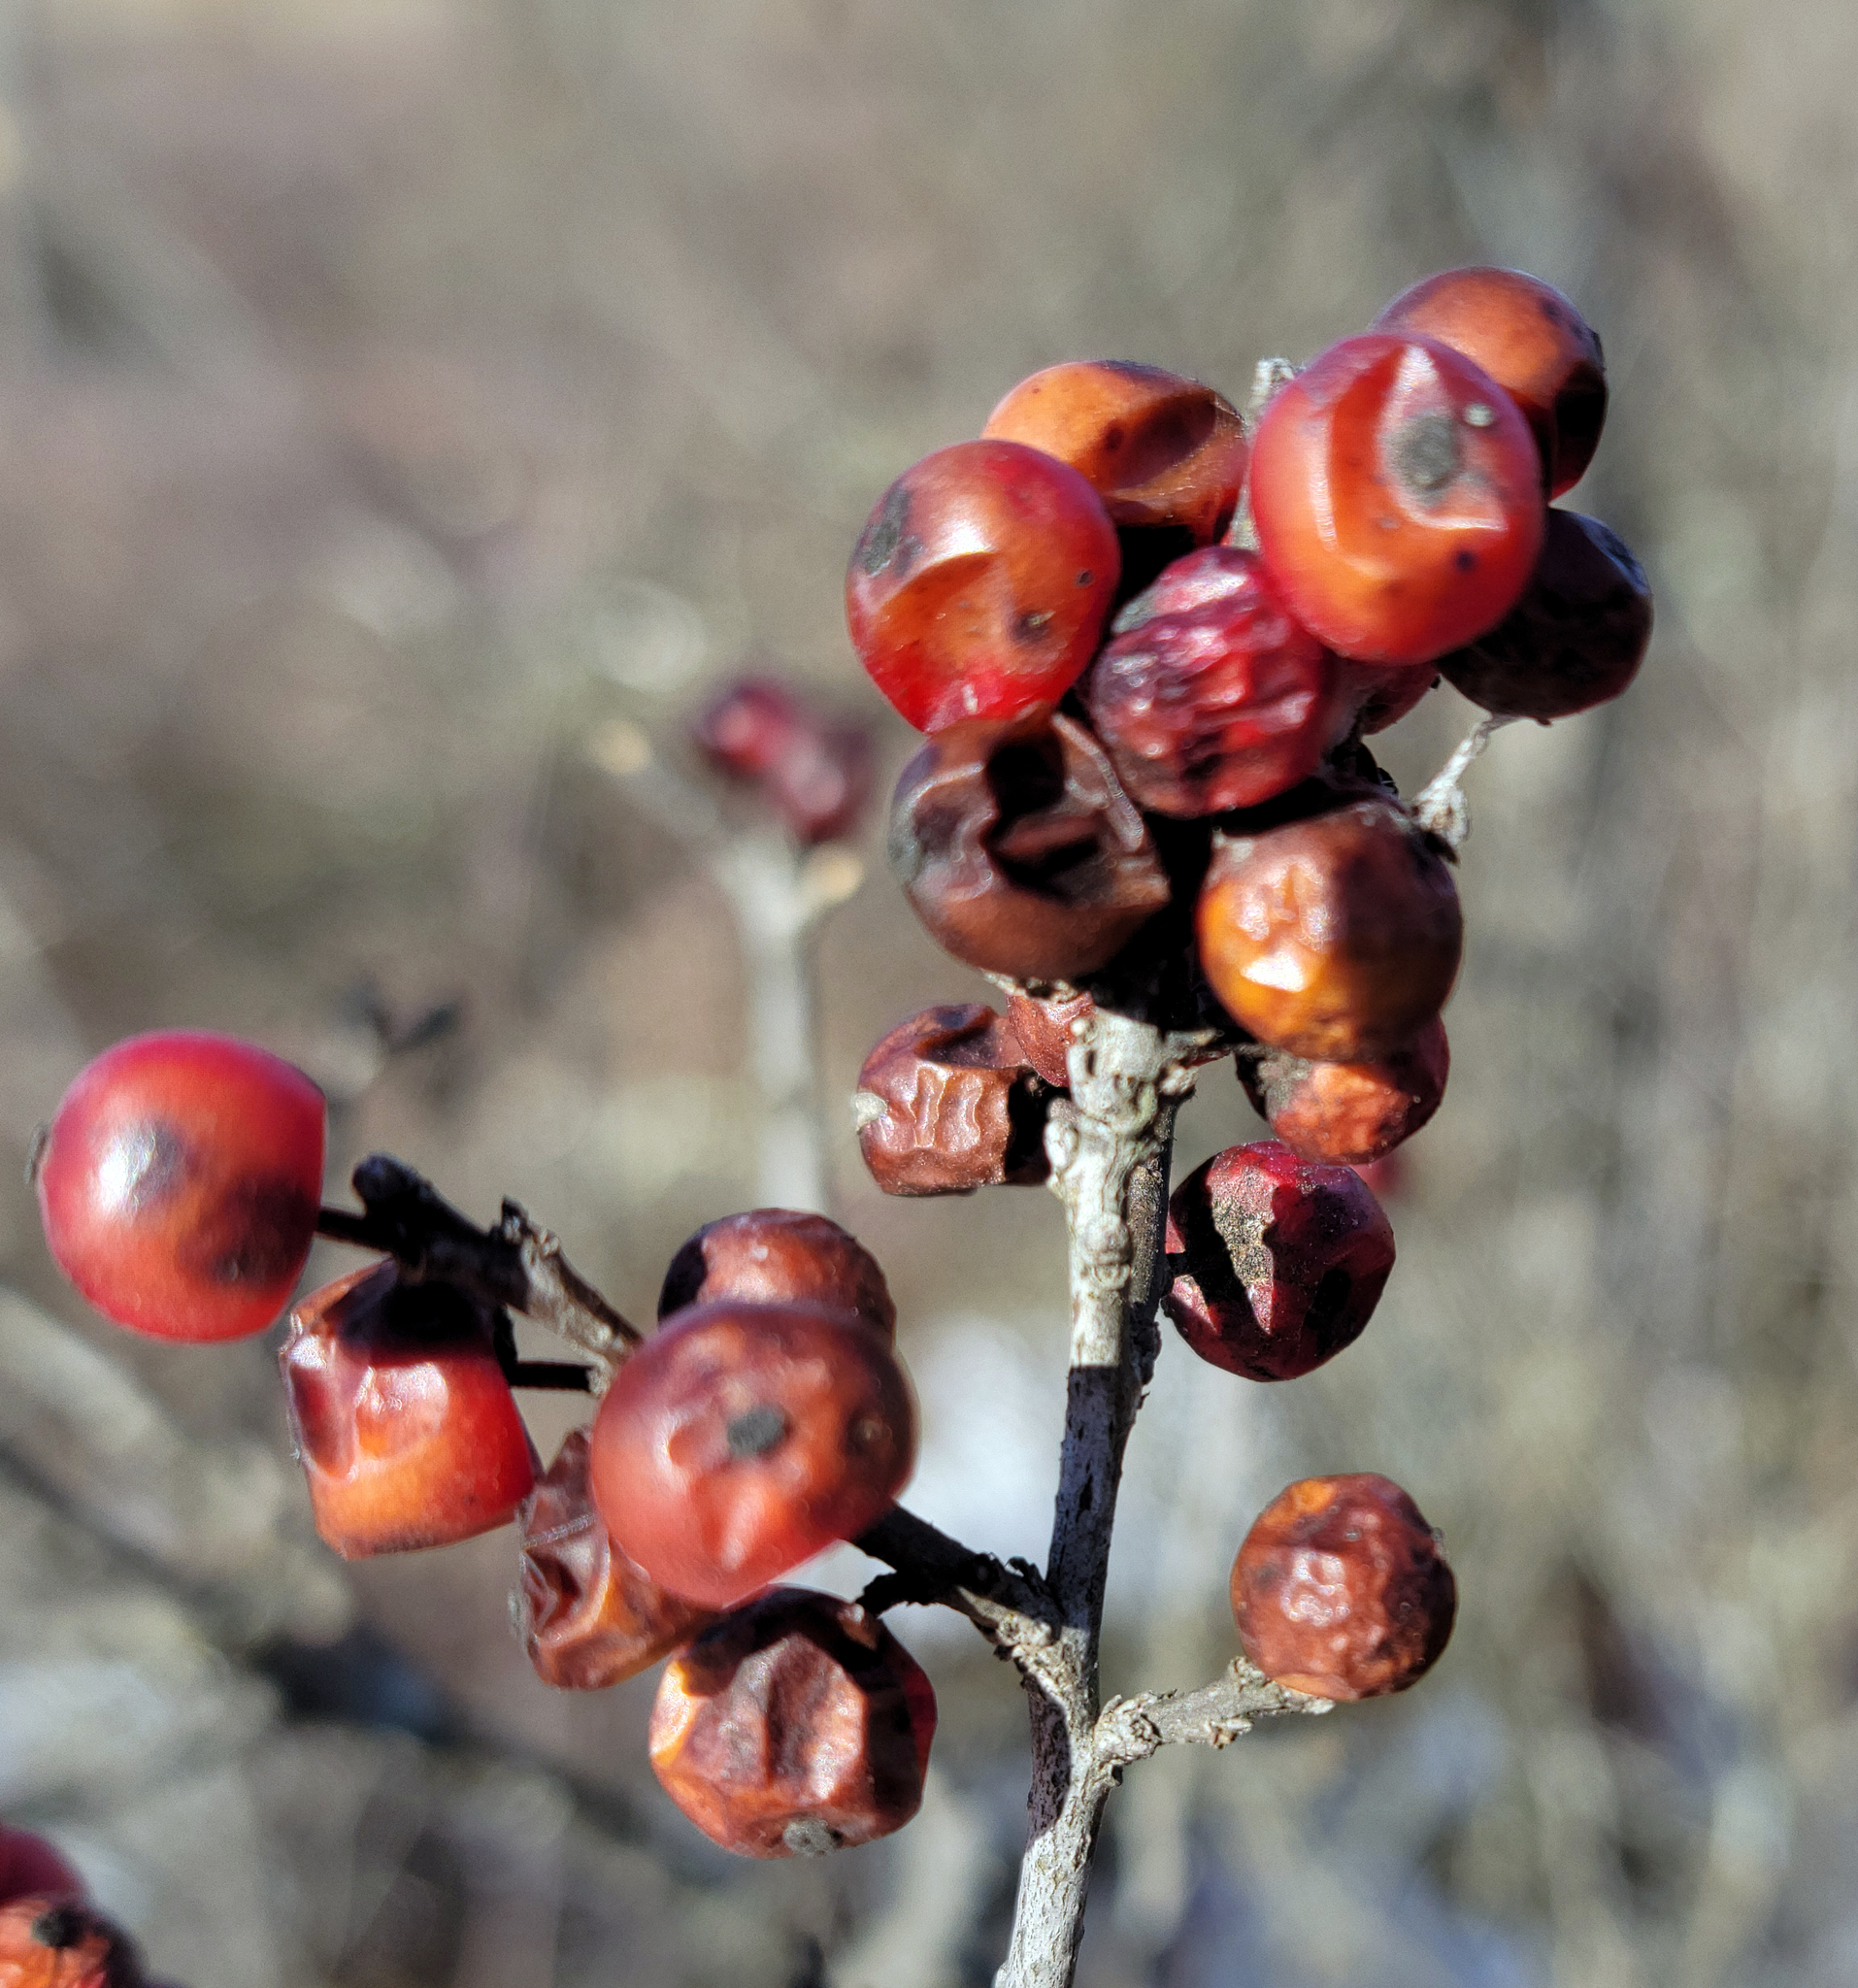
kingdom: Plantae
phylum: Tracheophyta
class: Magnoliopsida
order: Aquifoliales
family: Aquifoliaceae
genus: Ilex
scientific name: Ilex verticillata
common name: Virginia winterberry
